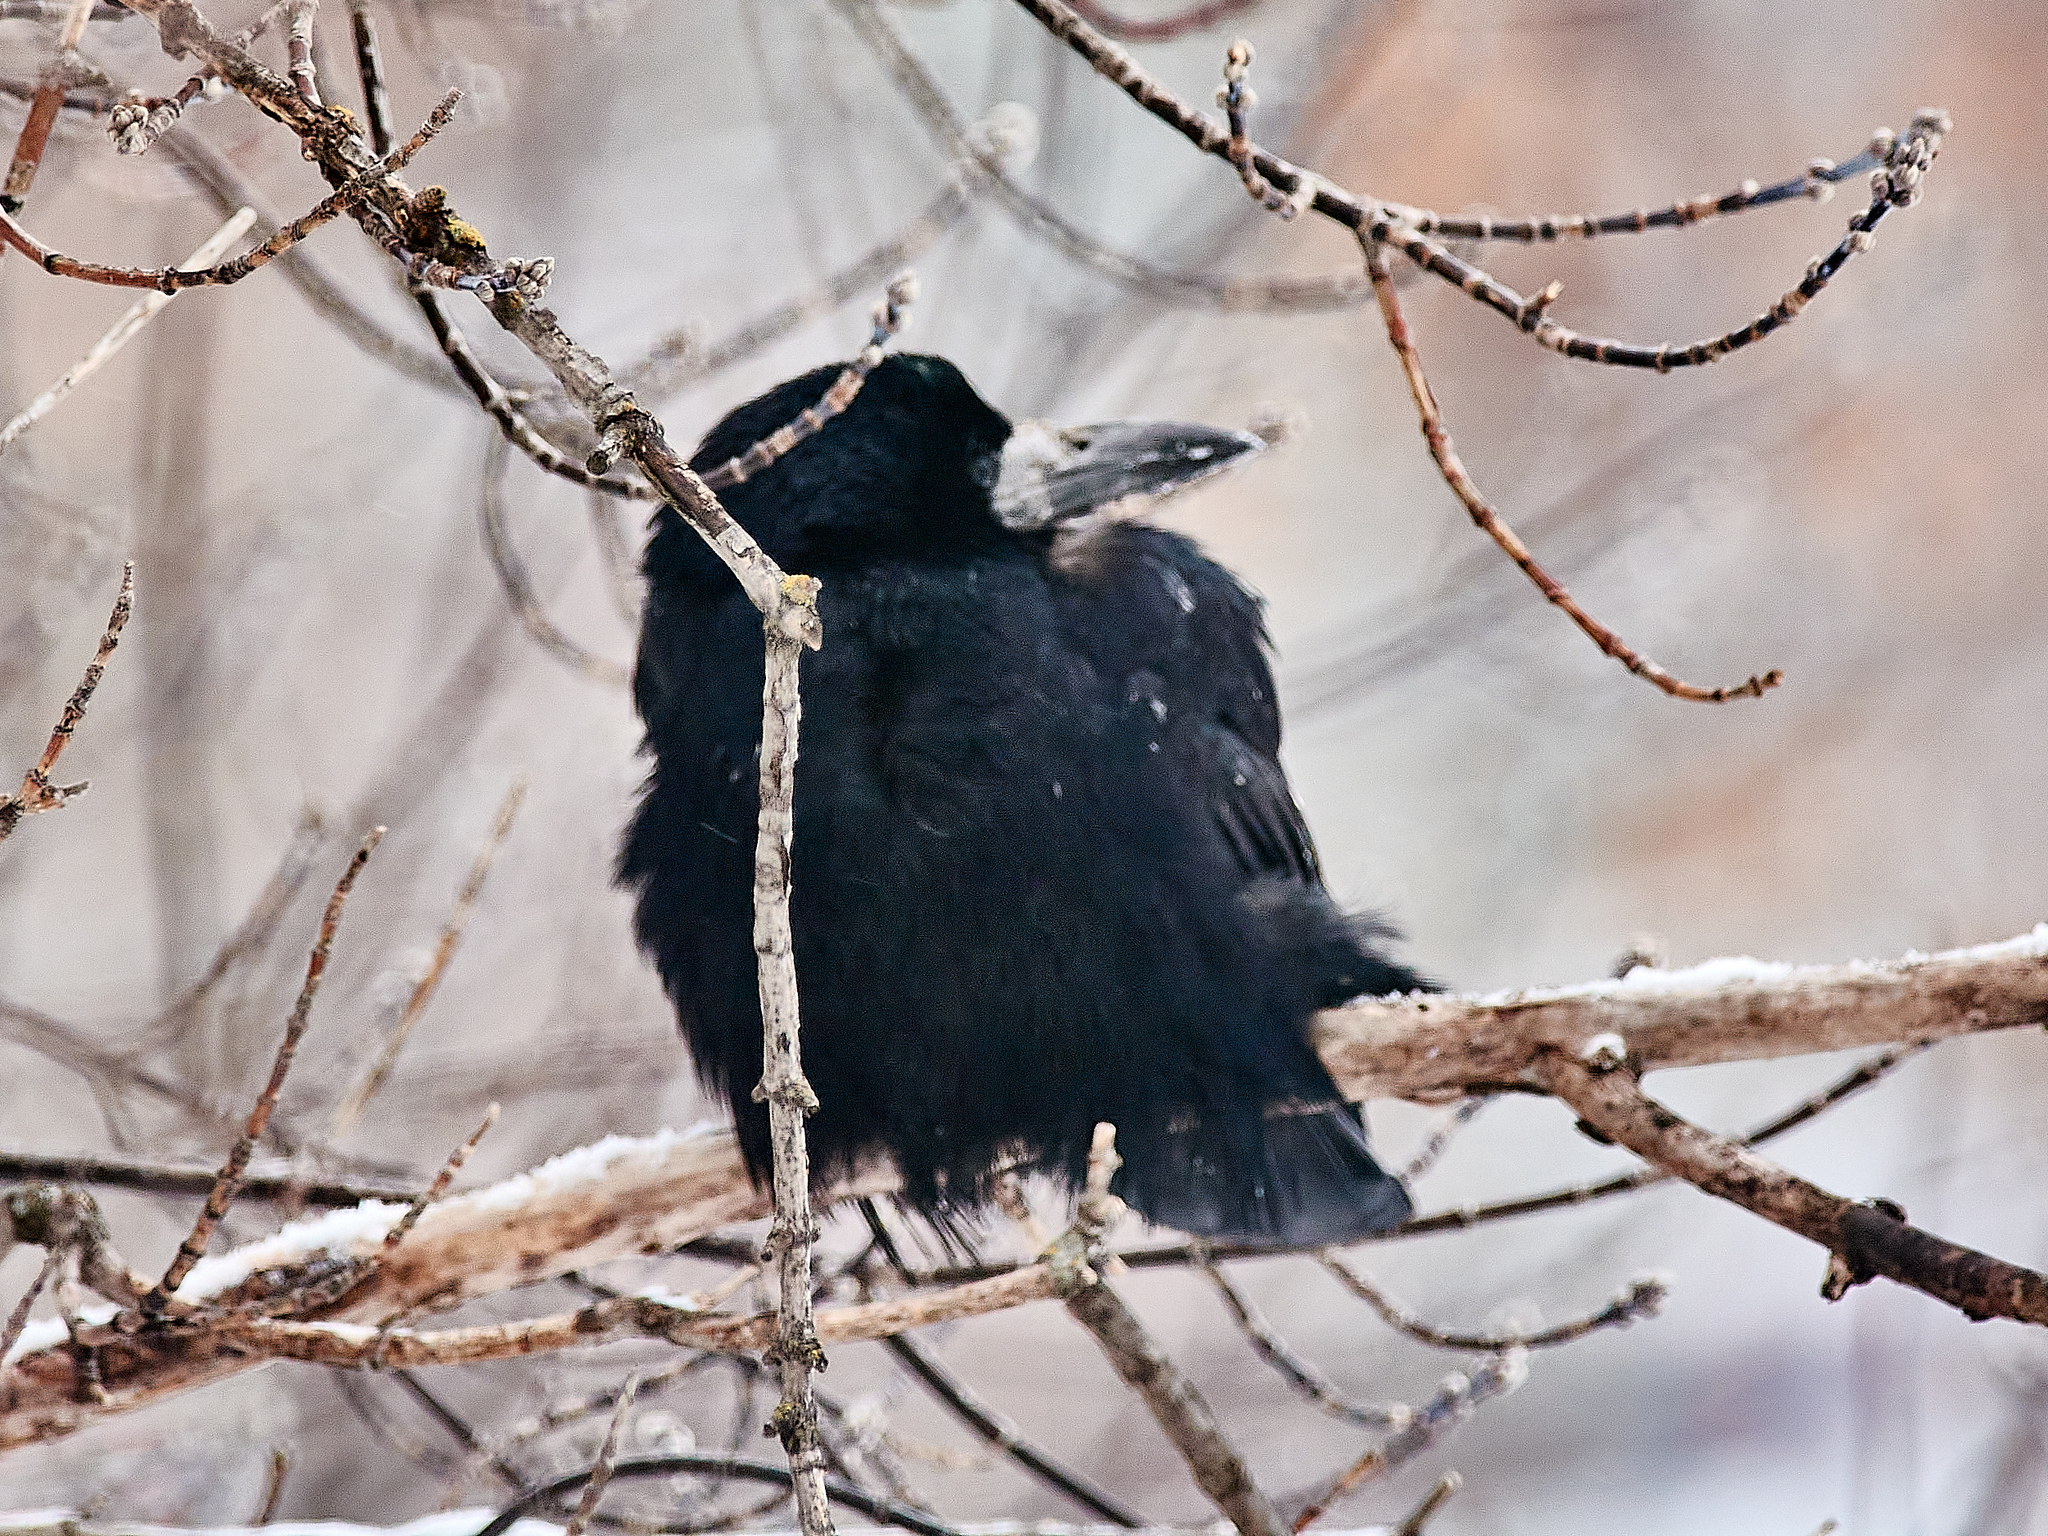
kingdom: Animalia
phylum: Chordata
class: Aves
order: Passeriformes
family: Corvidae
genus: Corvus
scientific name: Corvus frugilegus
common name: Rook
